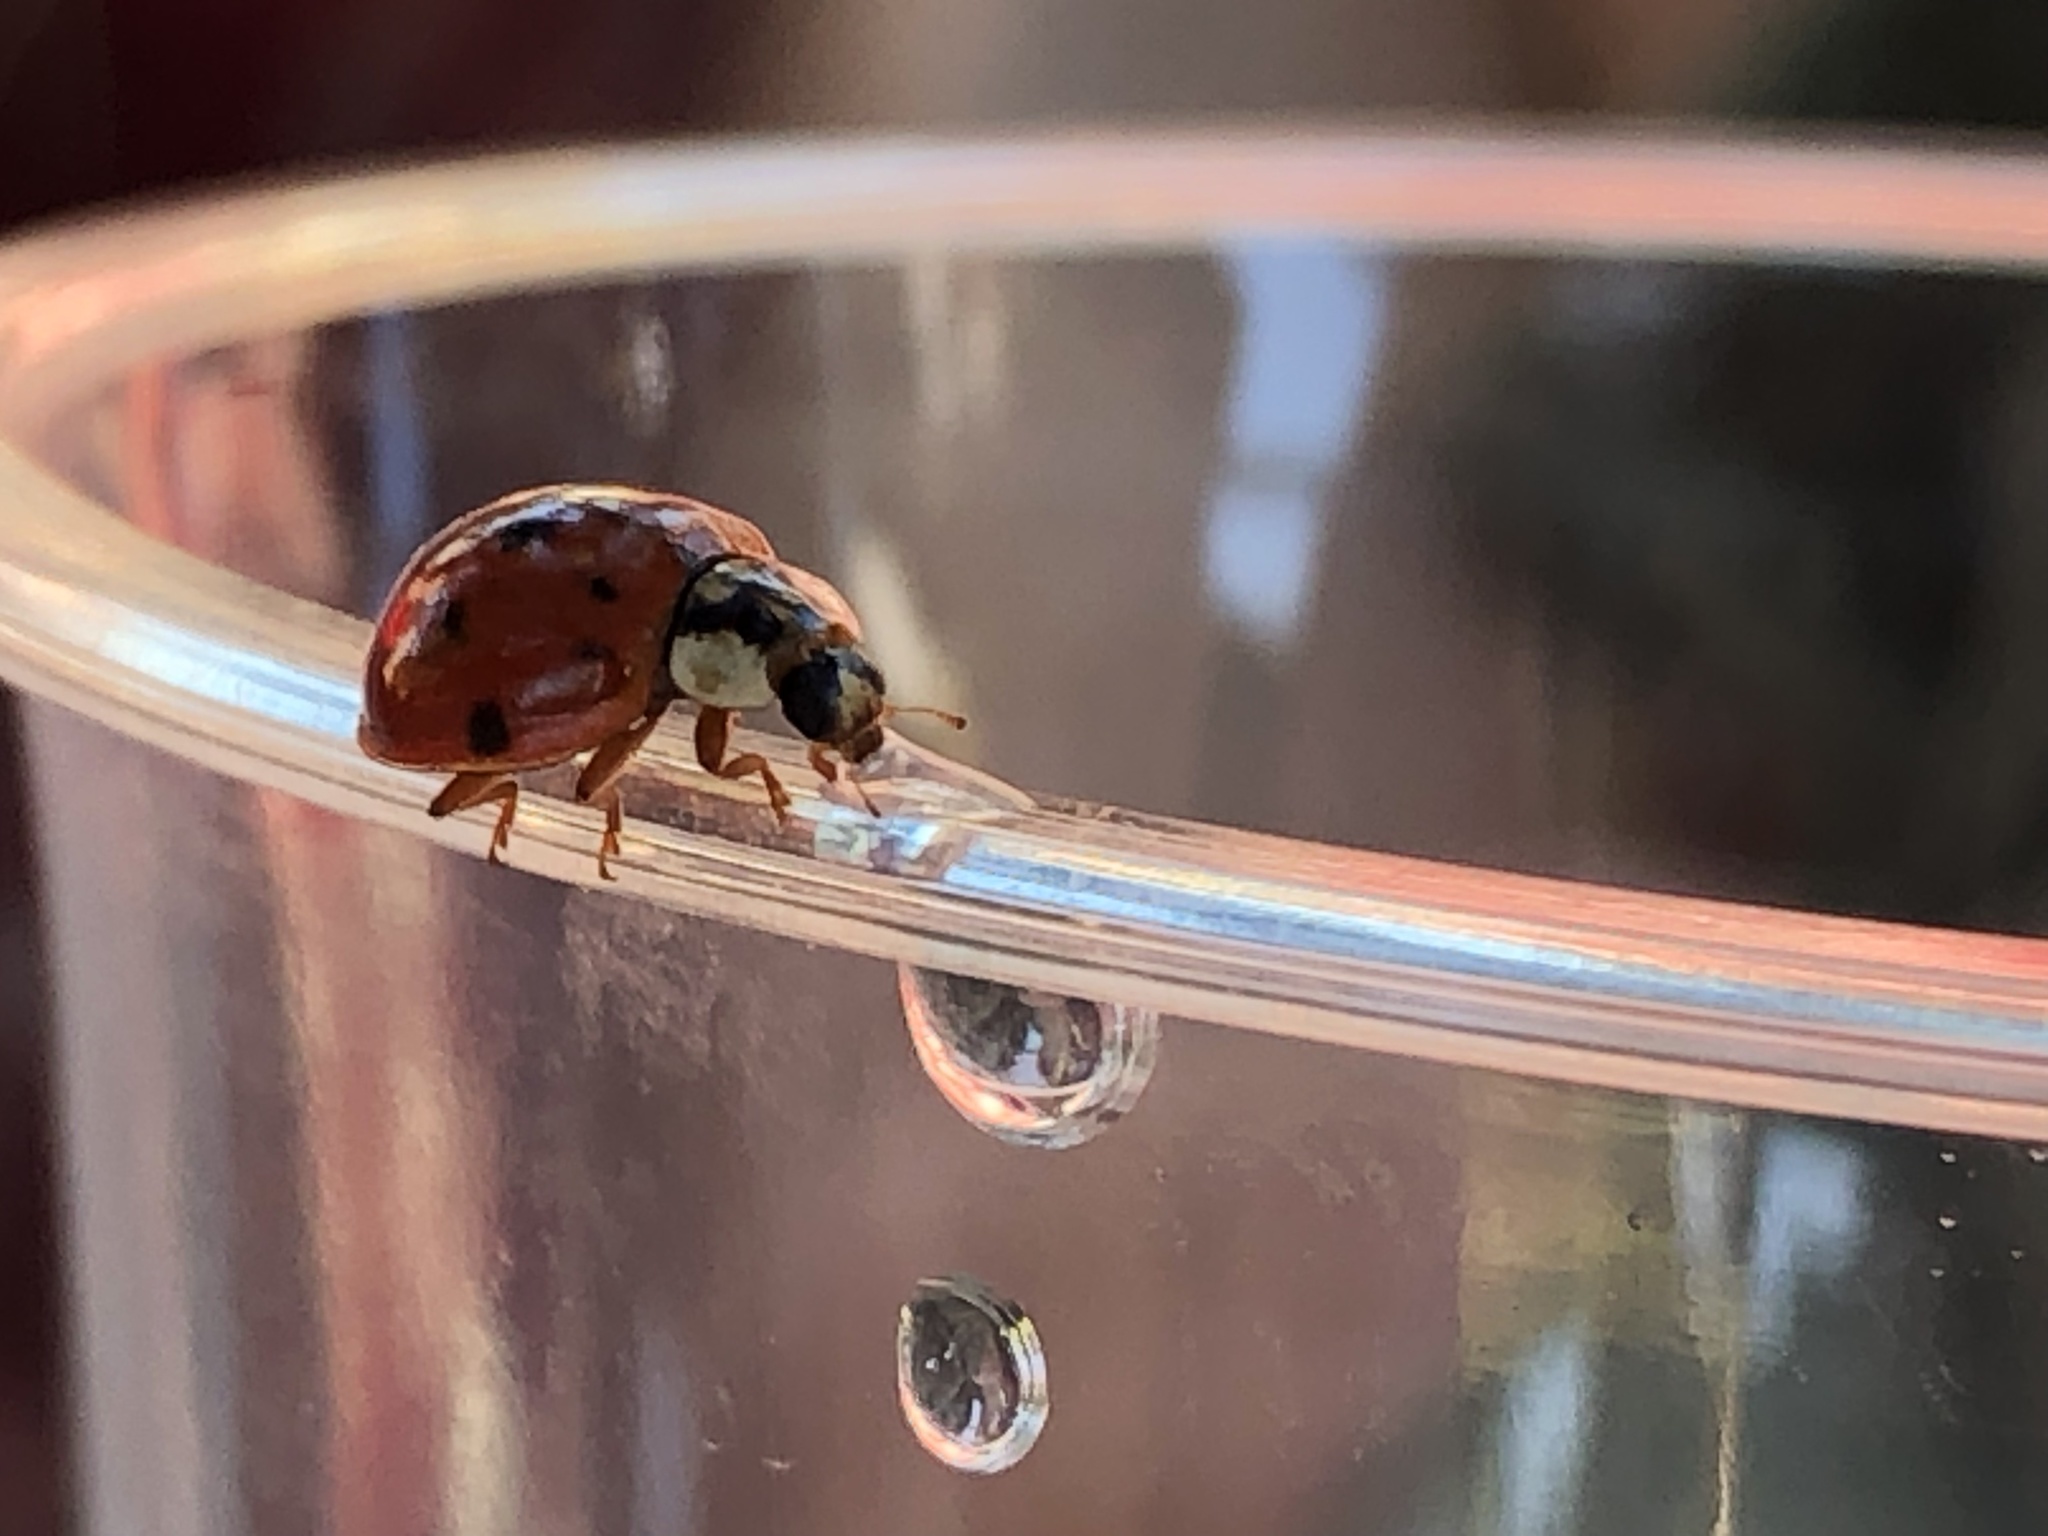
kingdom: Animalia
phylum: Arthropoda
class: Insecta
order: Coleoptera
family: Coccinellidae
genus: Harmonia
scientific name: Harmonia axyridis
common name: Harlequin ladybird
